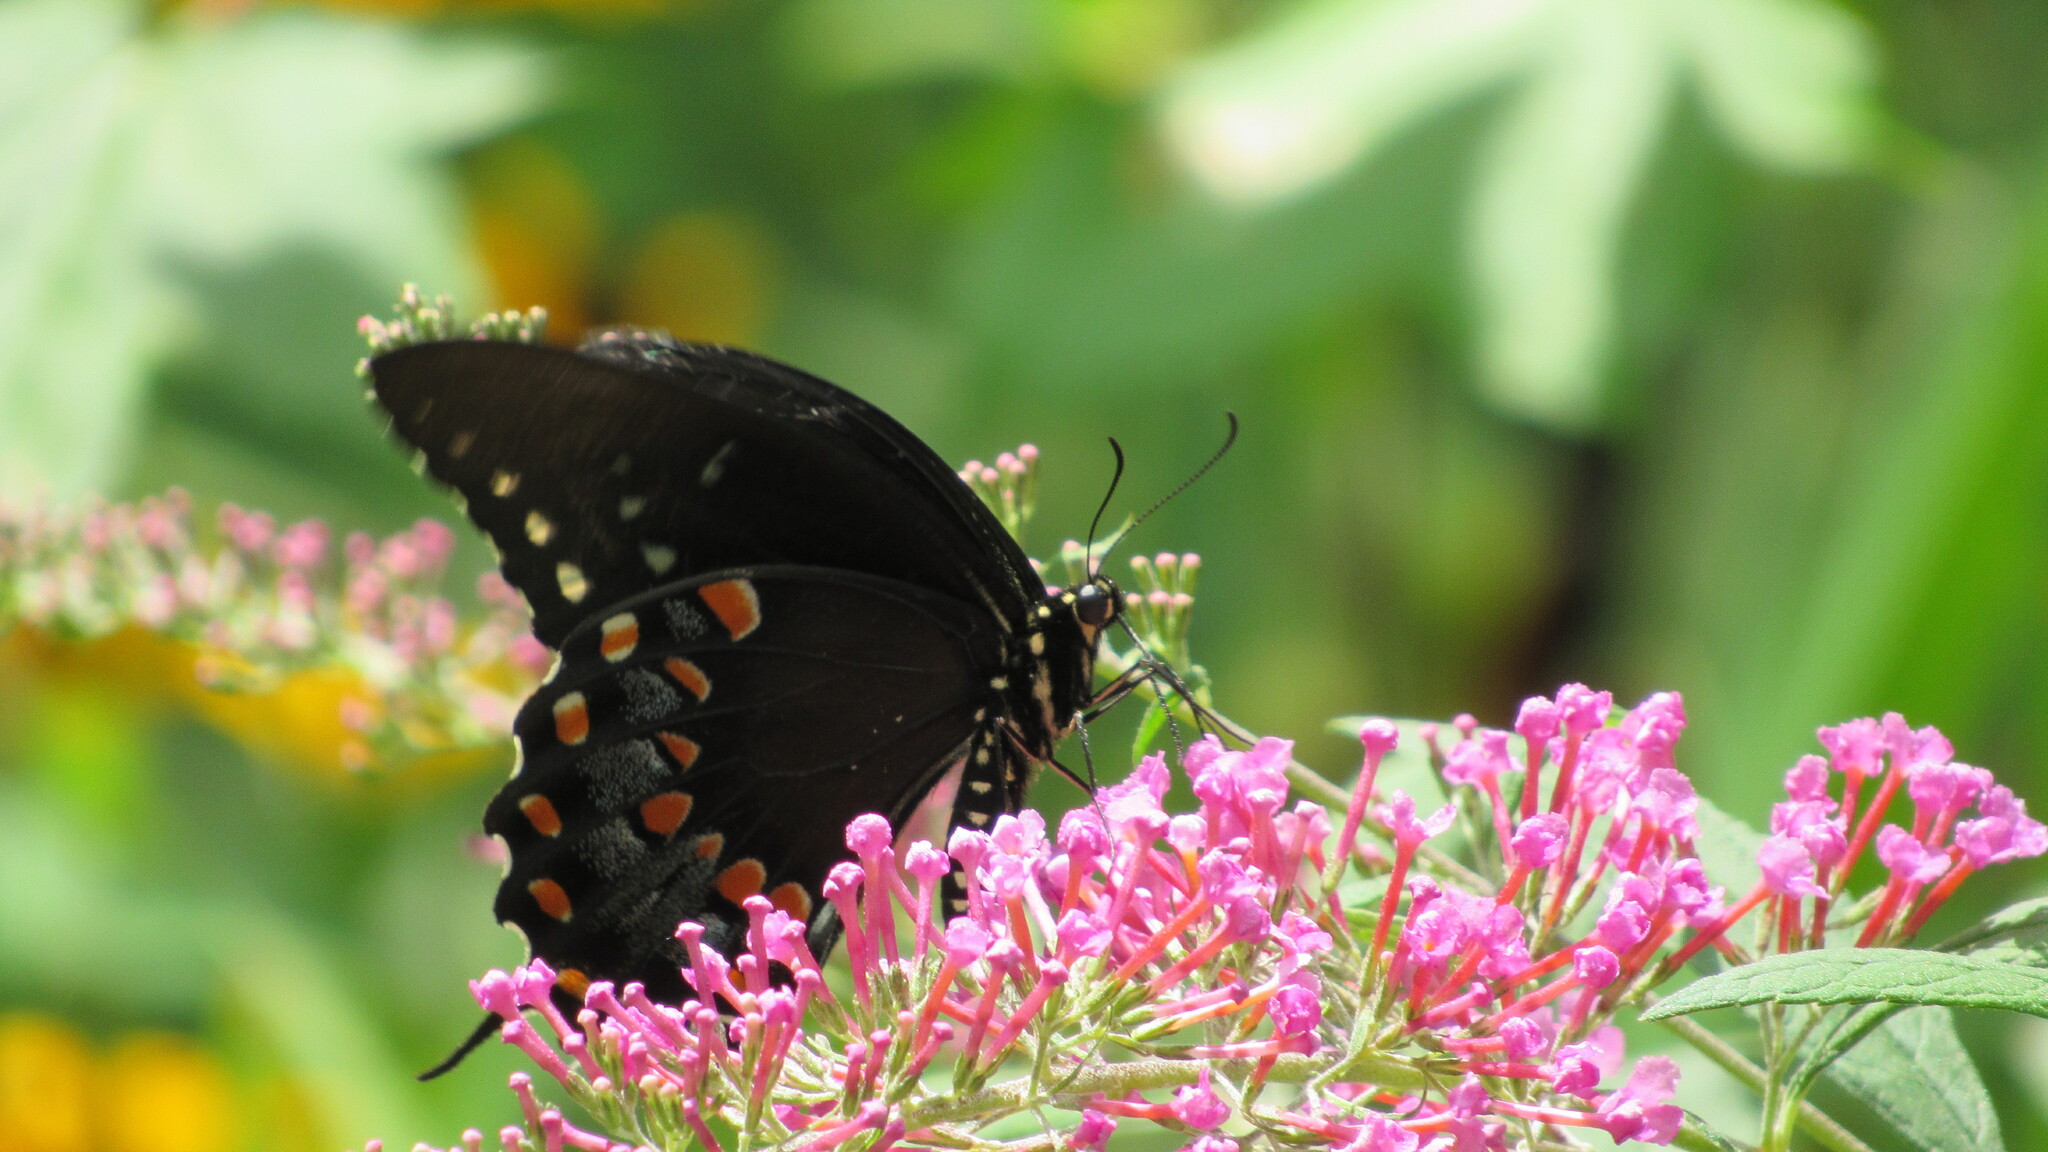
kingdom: Animalia
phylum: Arthropoda
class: Insecta
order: Lepidoptera
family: Papilionidae
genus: Papilio
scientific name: Papilio troilus
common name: Spicebush swallowtail
